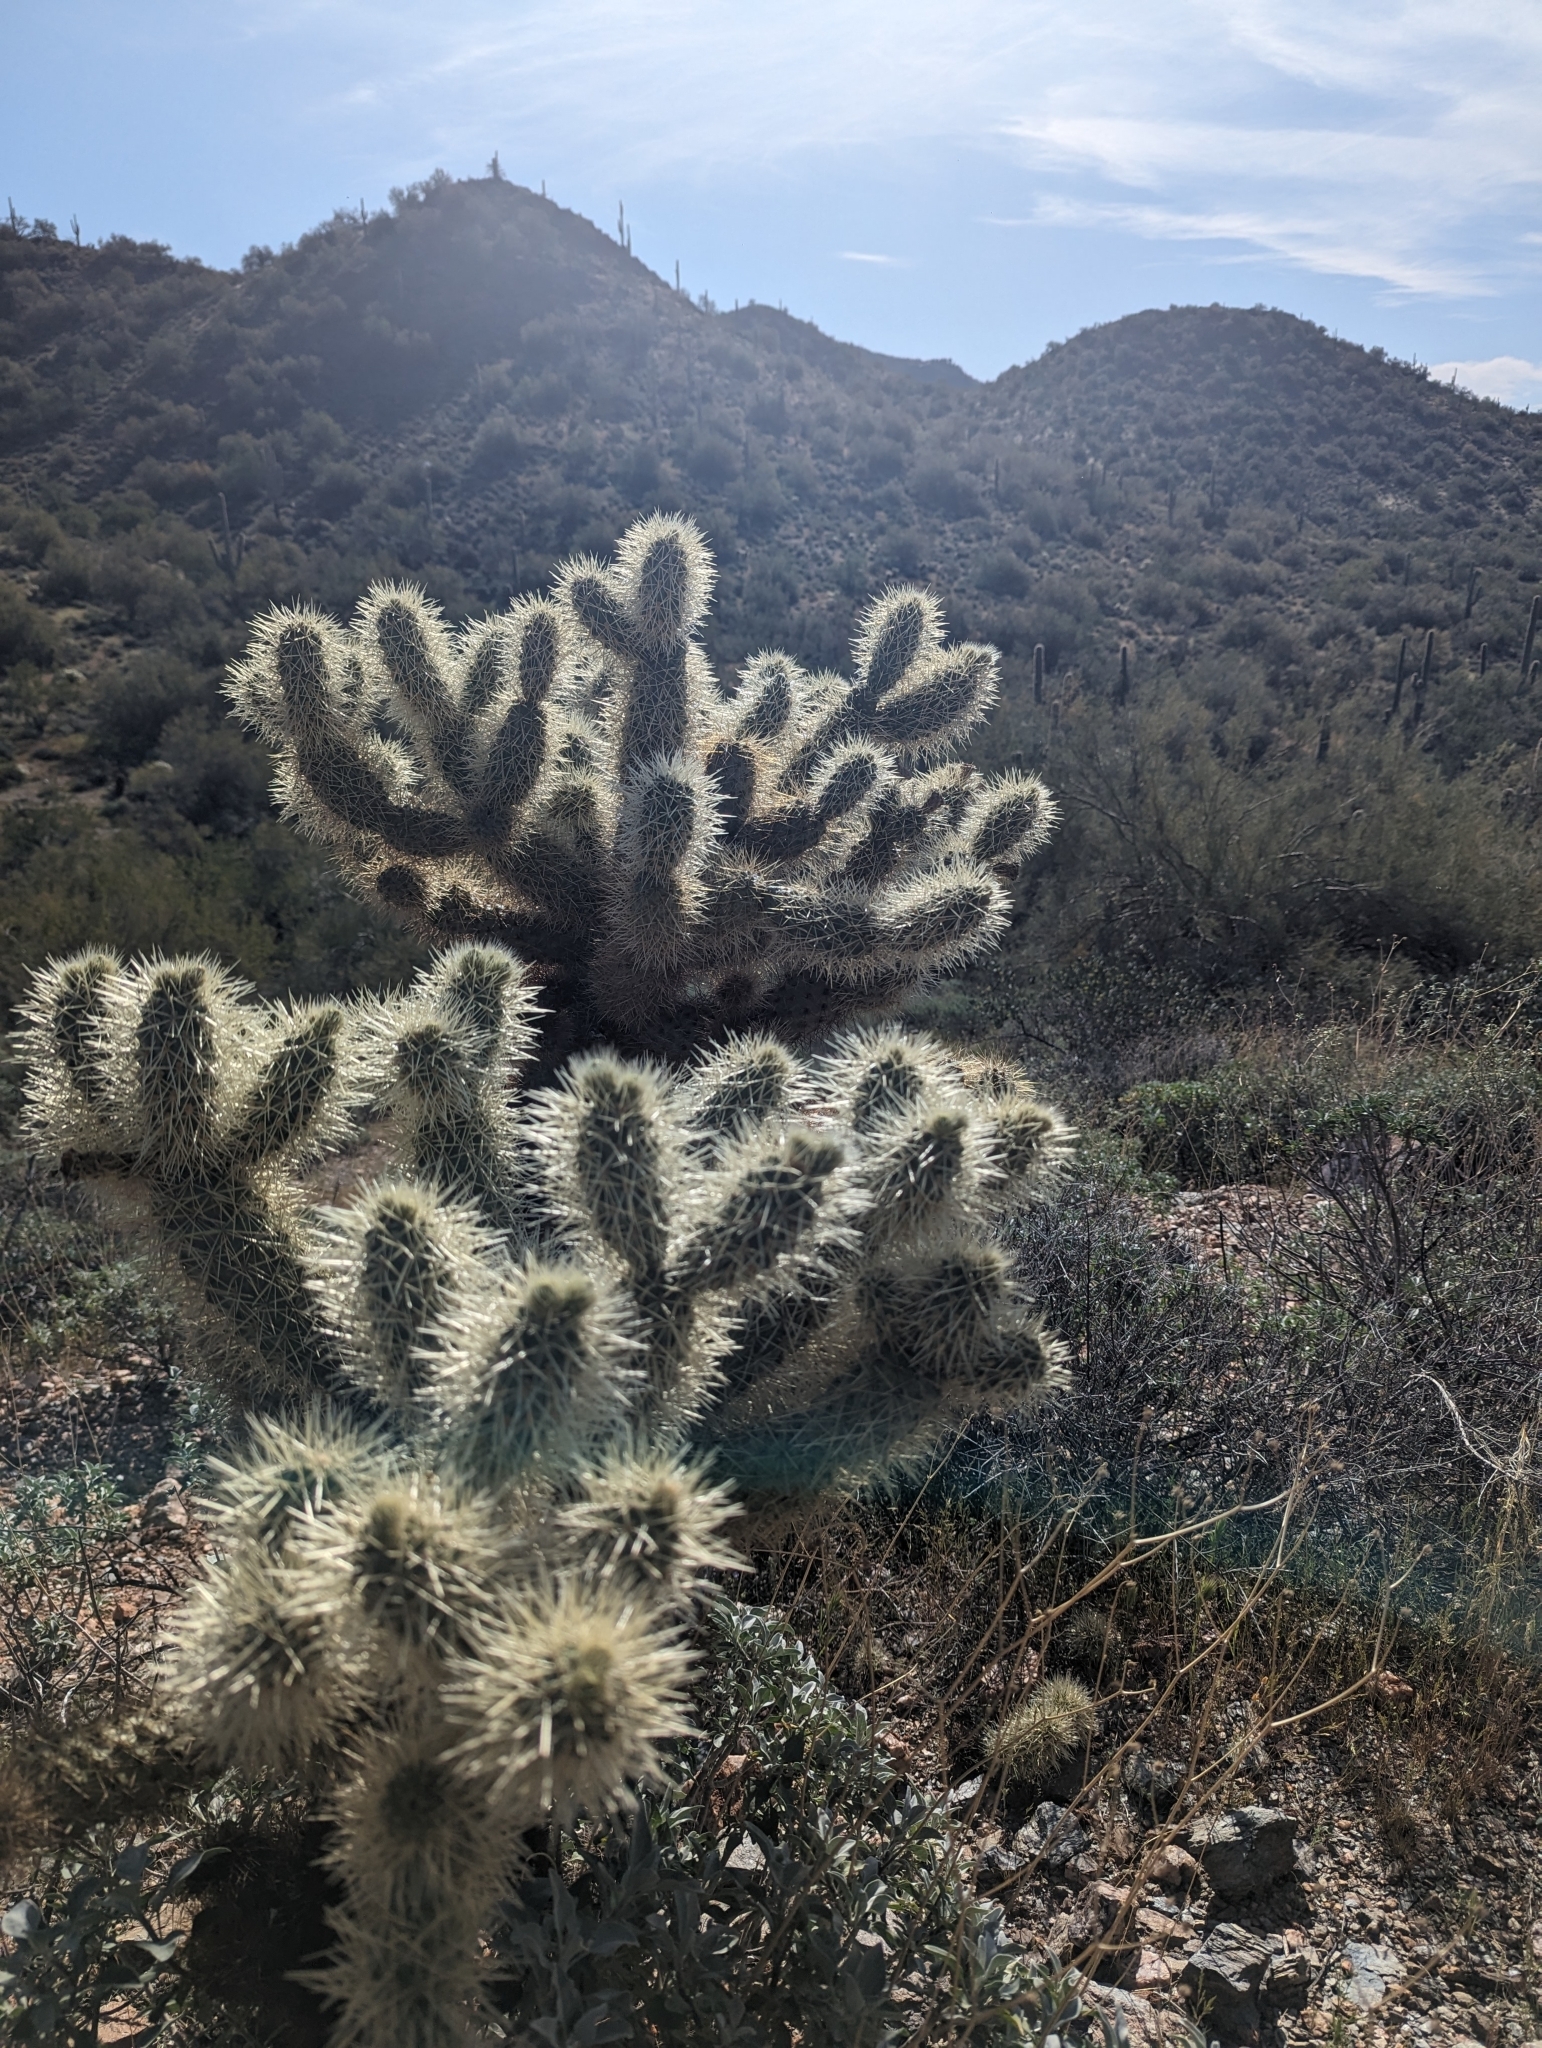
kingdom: Plantae
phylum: Tracheophyta
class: Magnoliopsida
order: Caryophyllales
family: Cactaceae
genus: Cylindropuntia
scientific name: Cylindropuntia fosbergii
